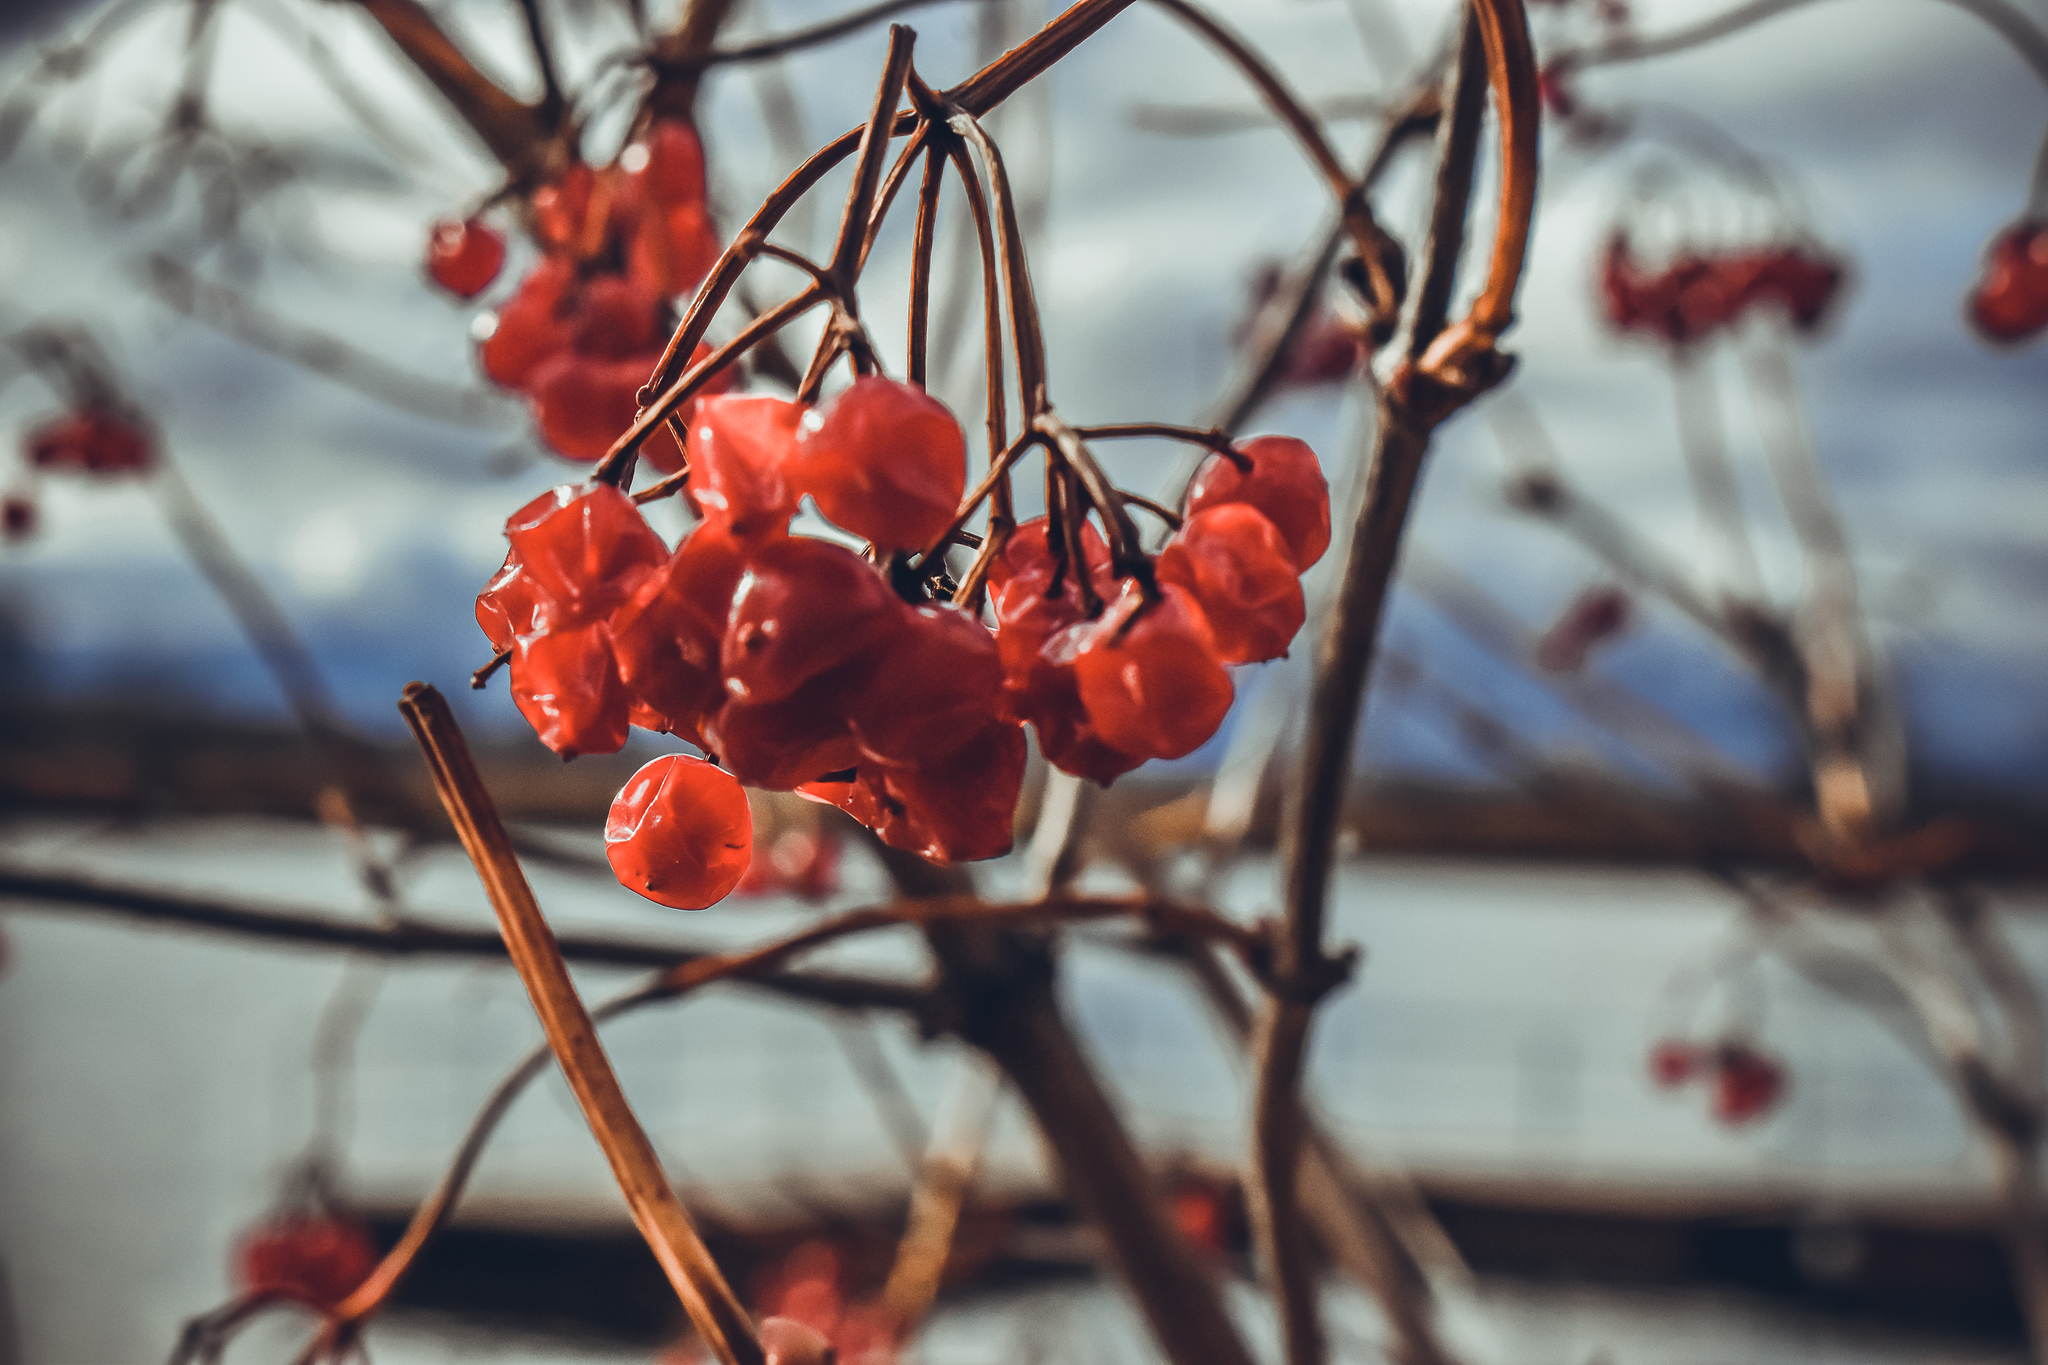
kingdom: Plantae
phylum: Tracheophyta
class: Magnoliopsida
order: Dipsacales
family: Viburnaceae
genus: Viburnum
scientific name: Viburnum opulus
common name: Guelder-rose
